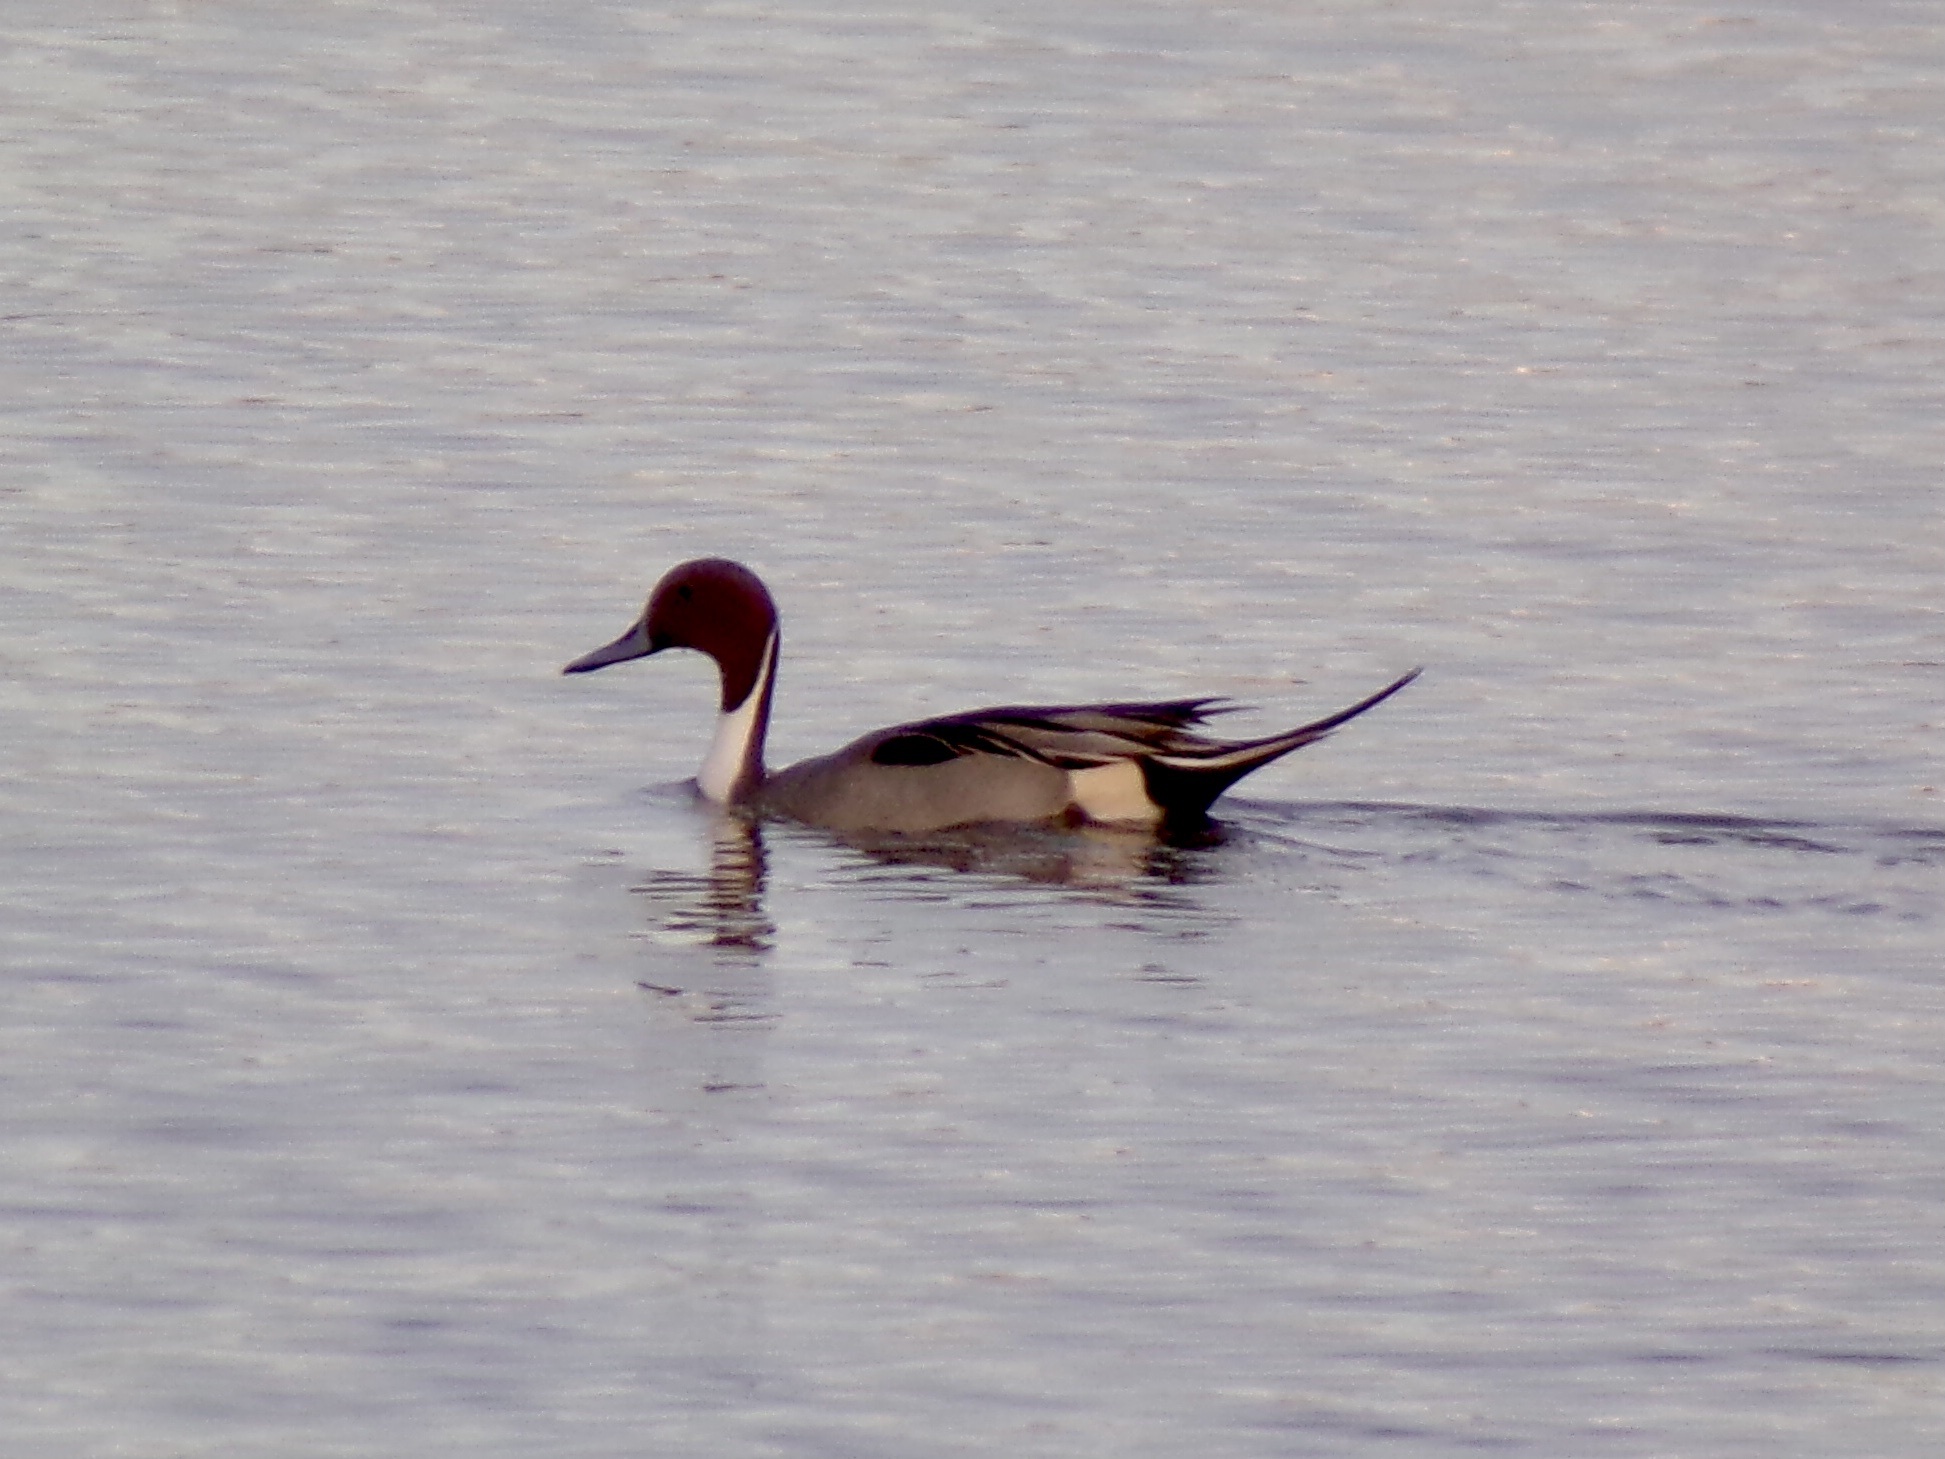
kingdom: Animalia
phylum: Chordata
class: Aves
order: Anseriformes
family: Anatidae
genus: Anas
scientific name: Anas acuta
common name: Northern pintail
